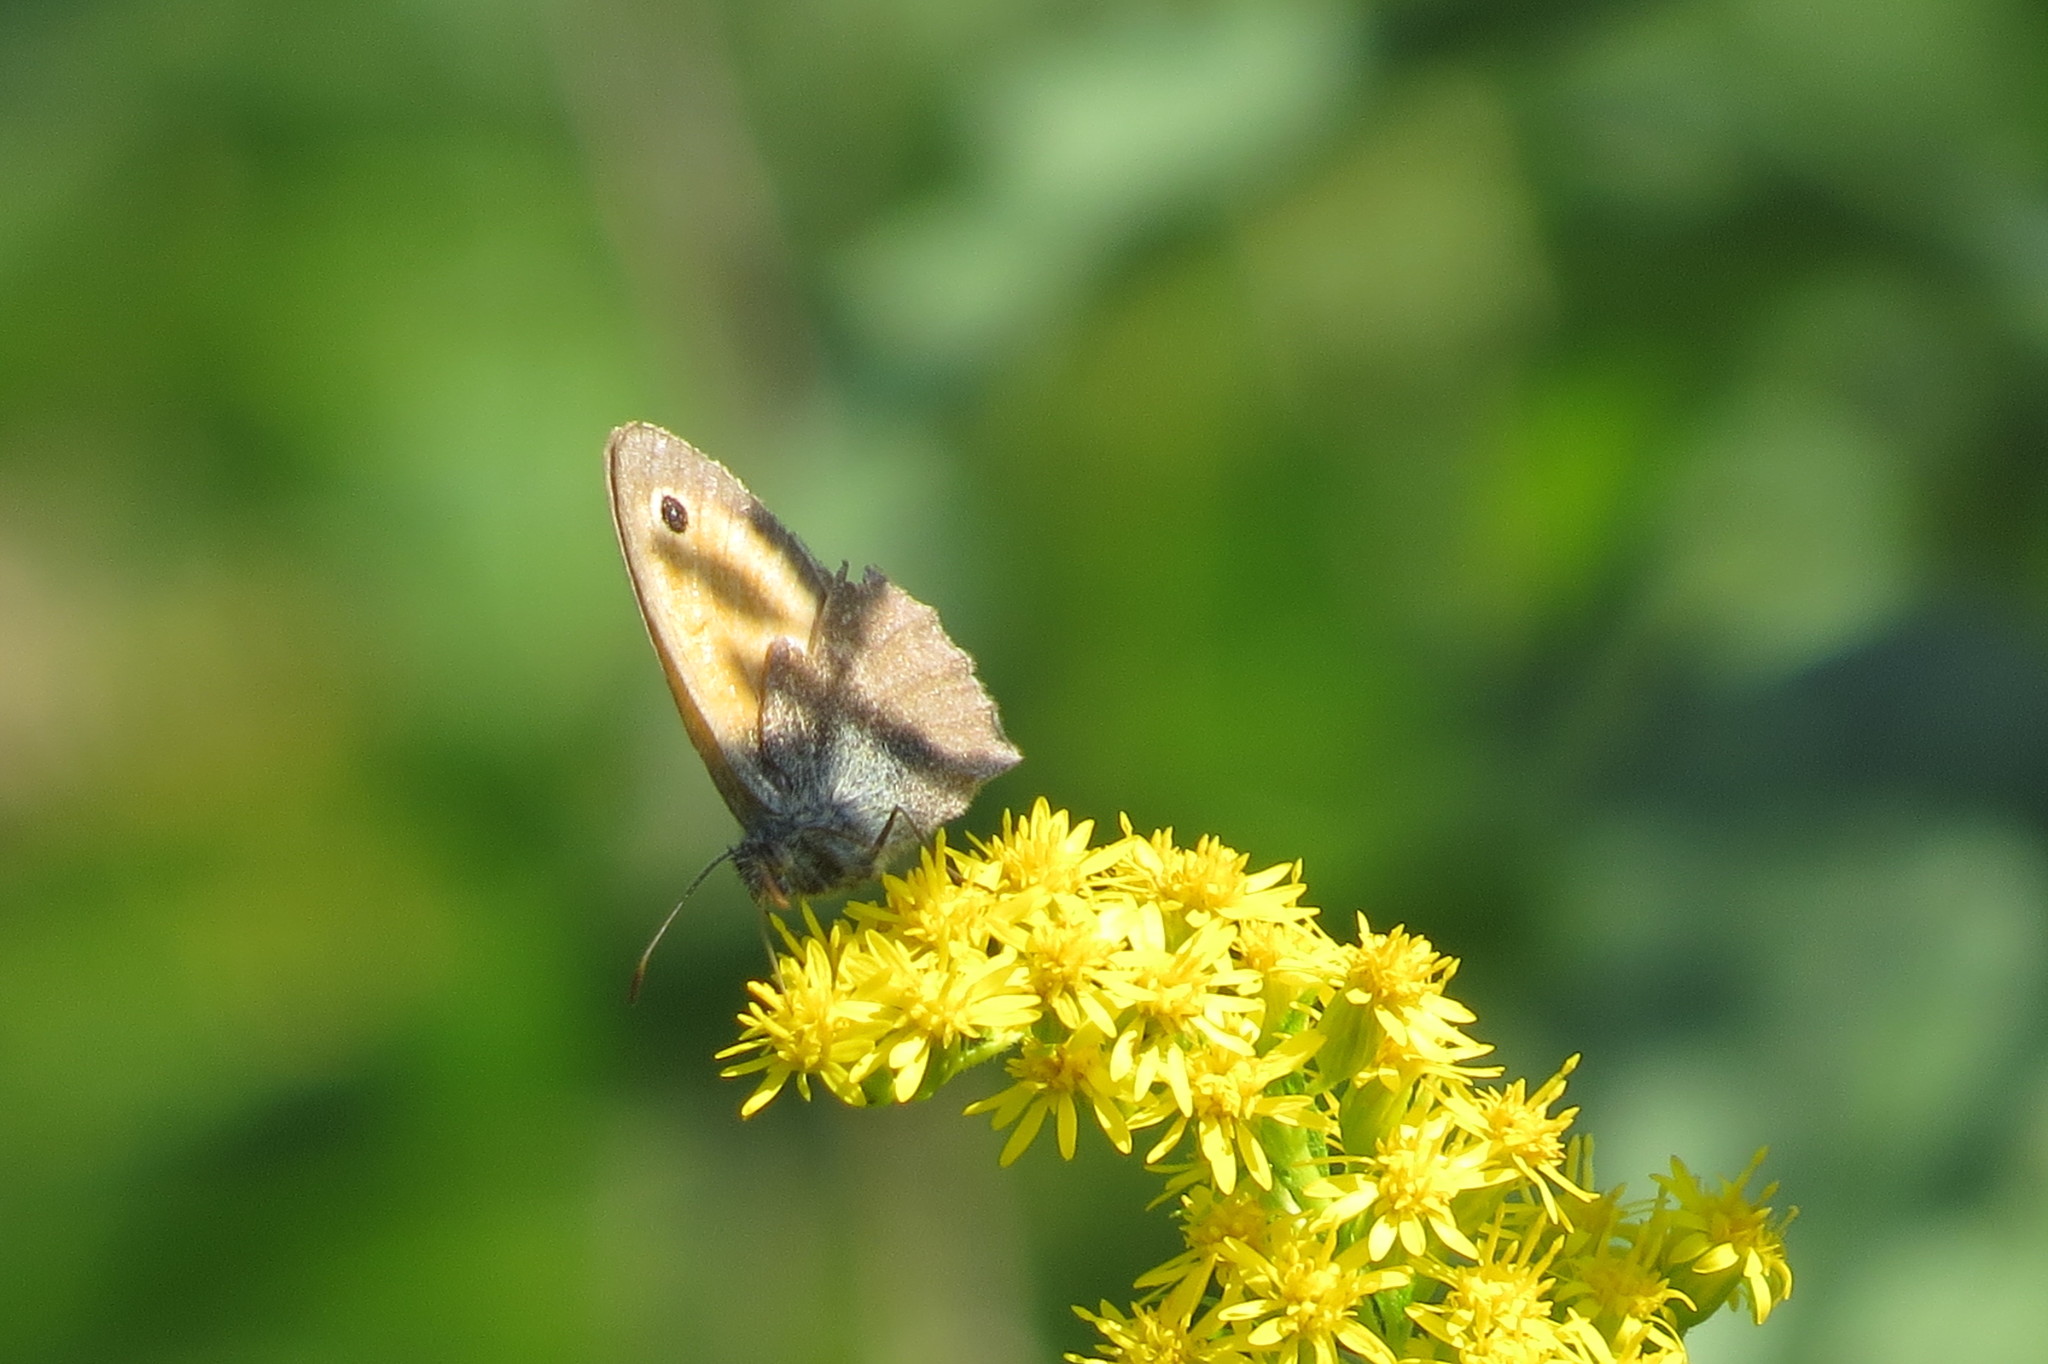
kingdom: Animalia
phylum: Arthropoda
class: Insecta
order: Lepidoptera
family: Nymphalidae
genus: Coenonympha
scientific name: Coenonympha pamphilus
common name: Small heath
